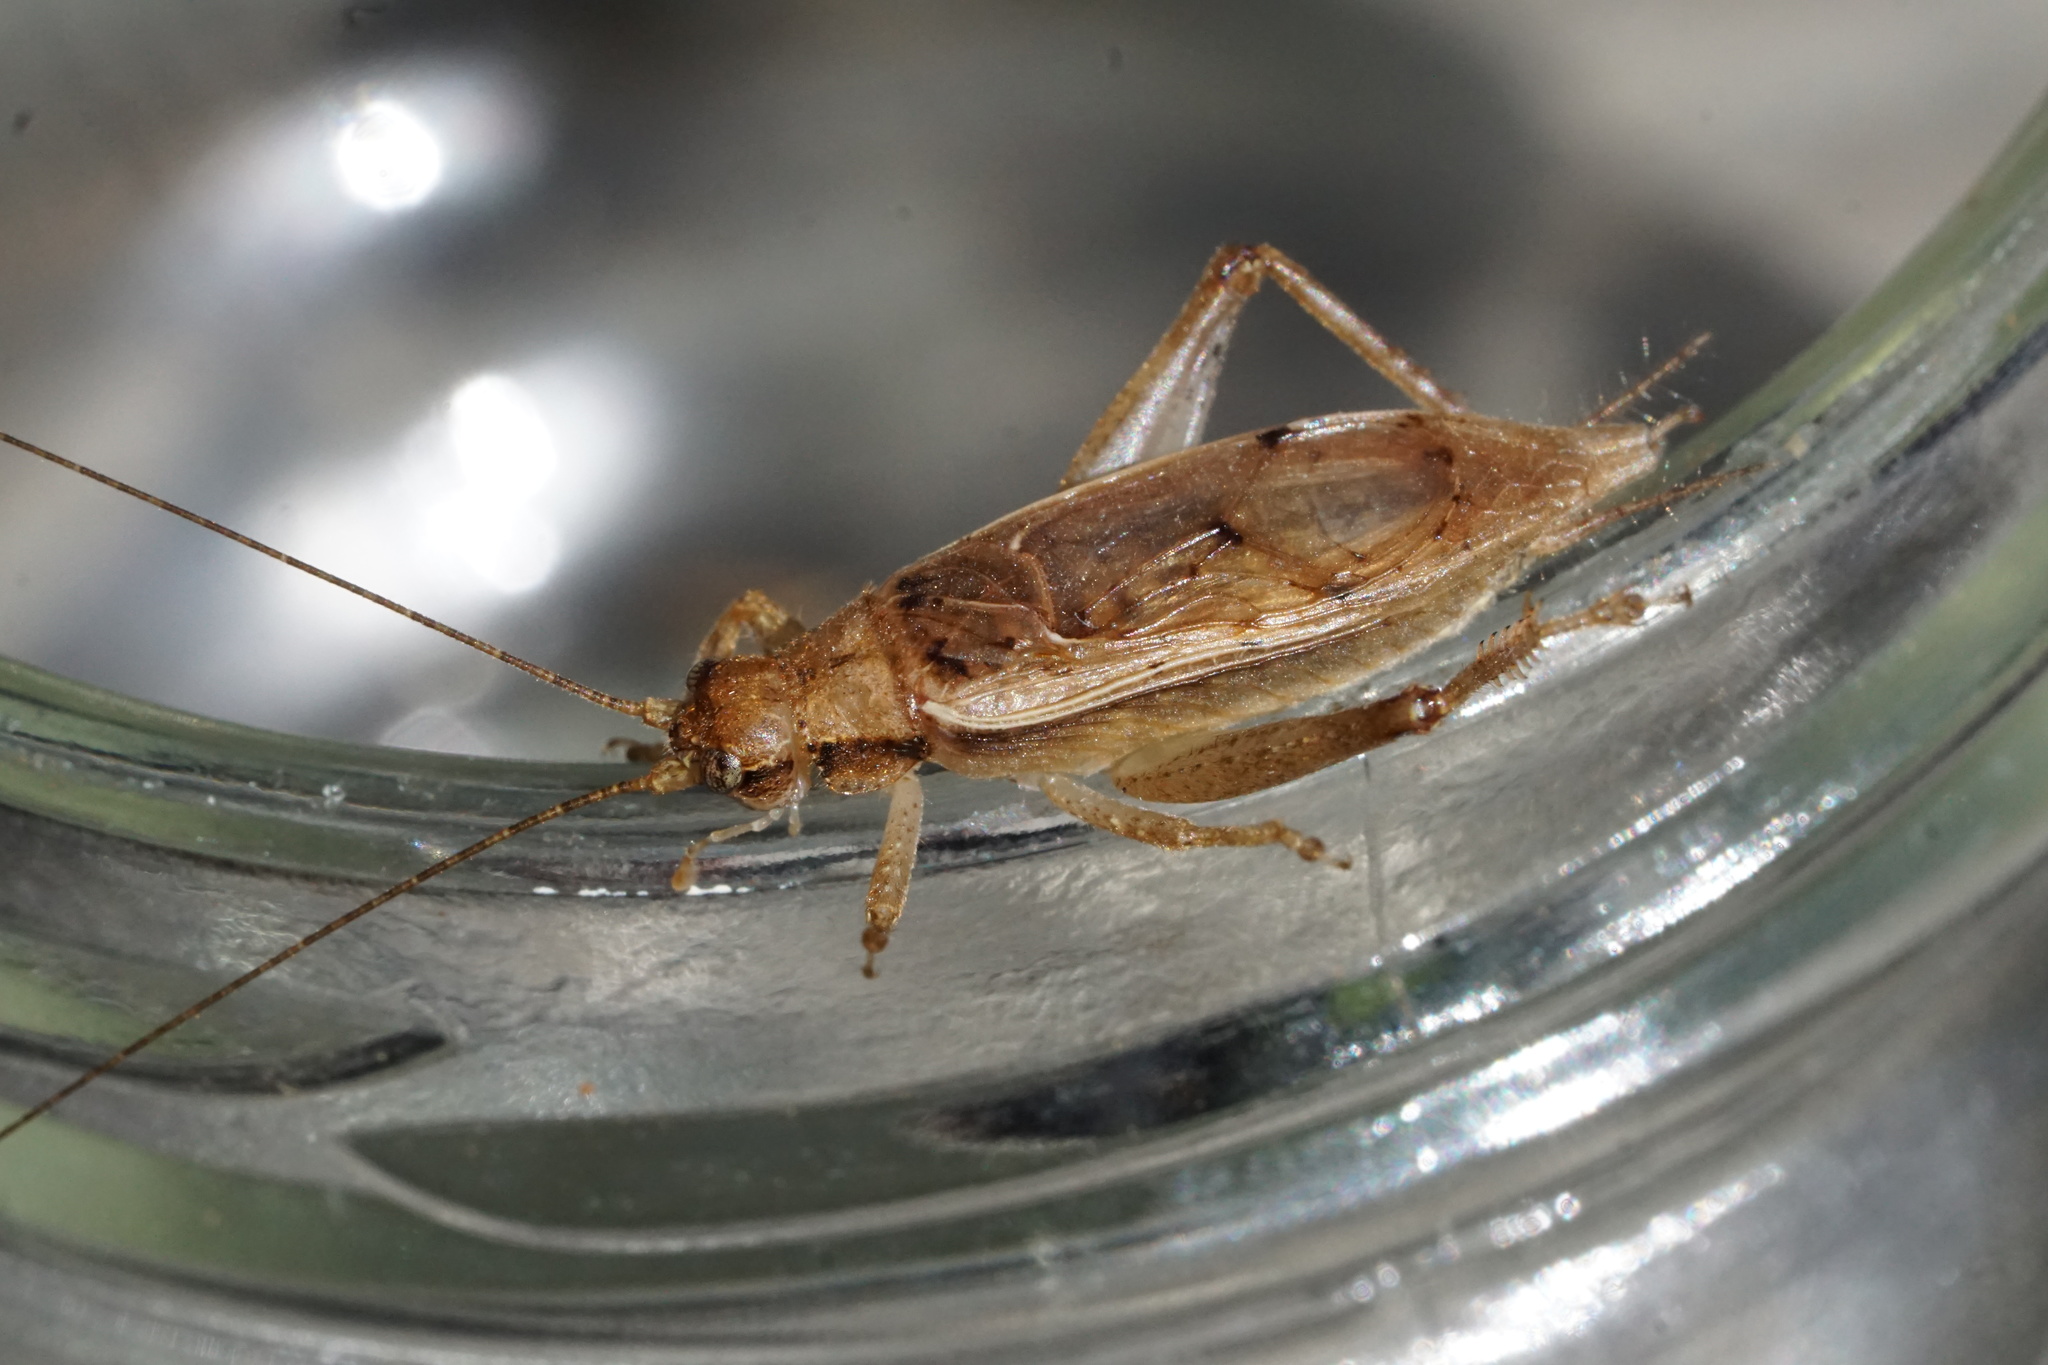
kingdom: Animalia
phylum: Arthropoda
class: Insecta
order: Orthoptera
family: Gryllidae
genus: Hapithus
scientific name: Hapithus saltator
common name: Jumping bush cricket
